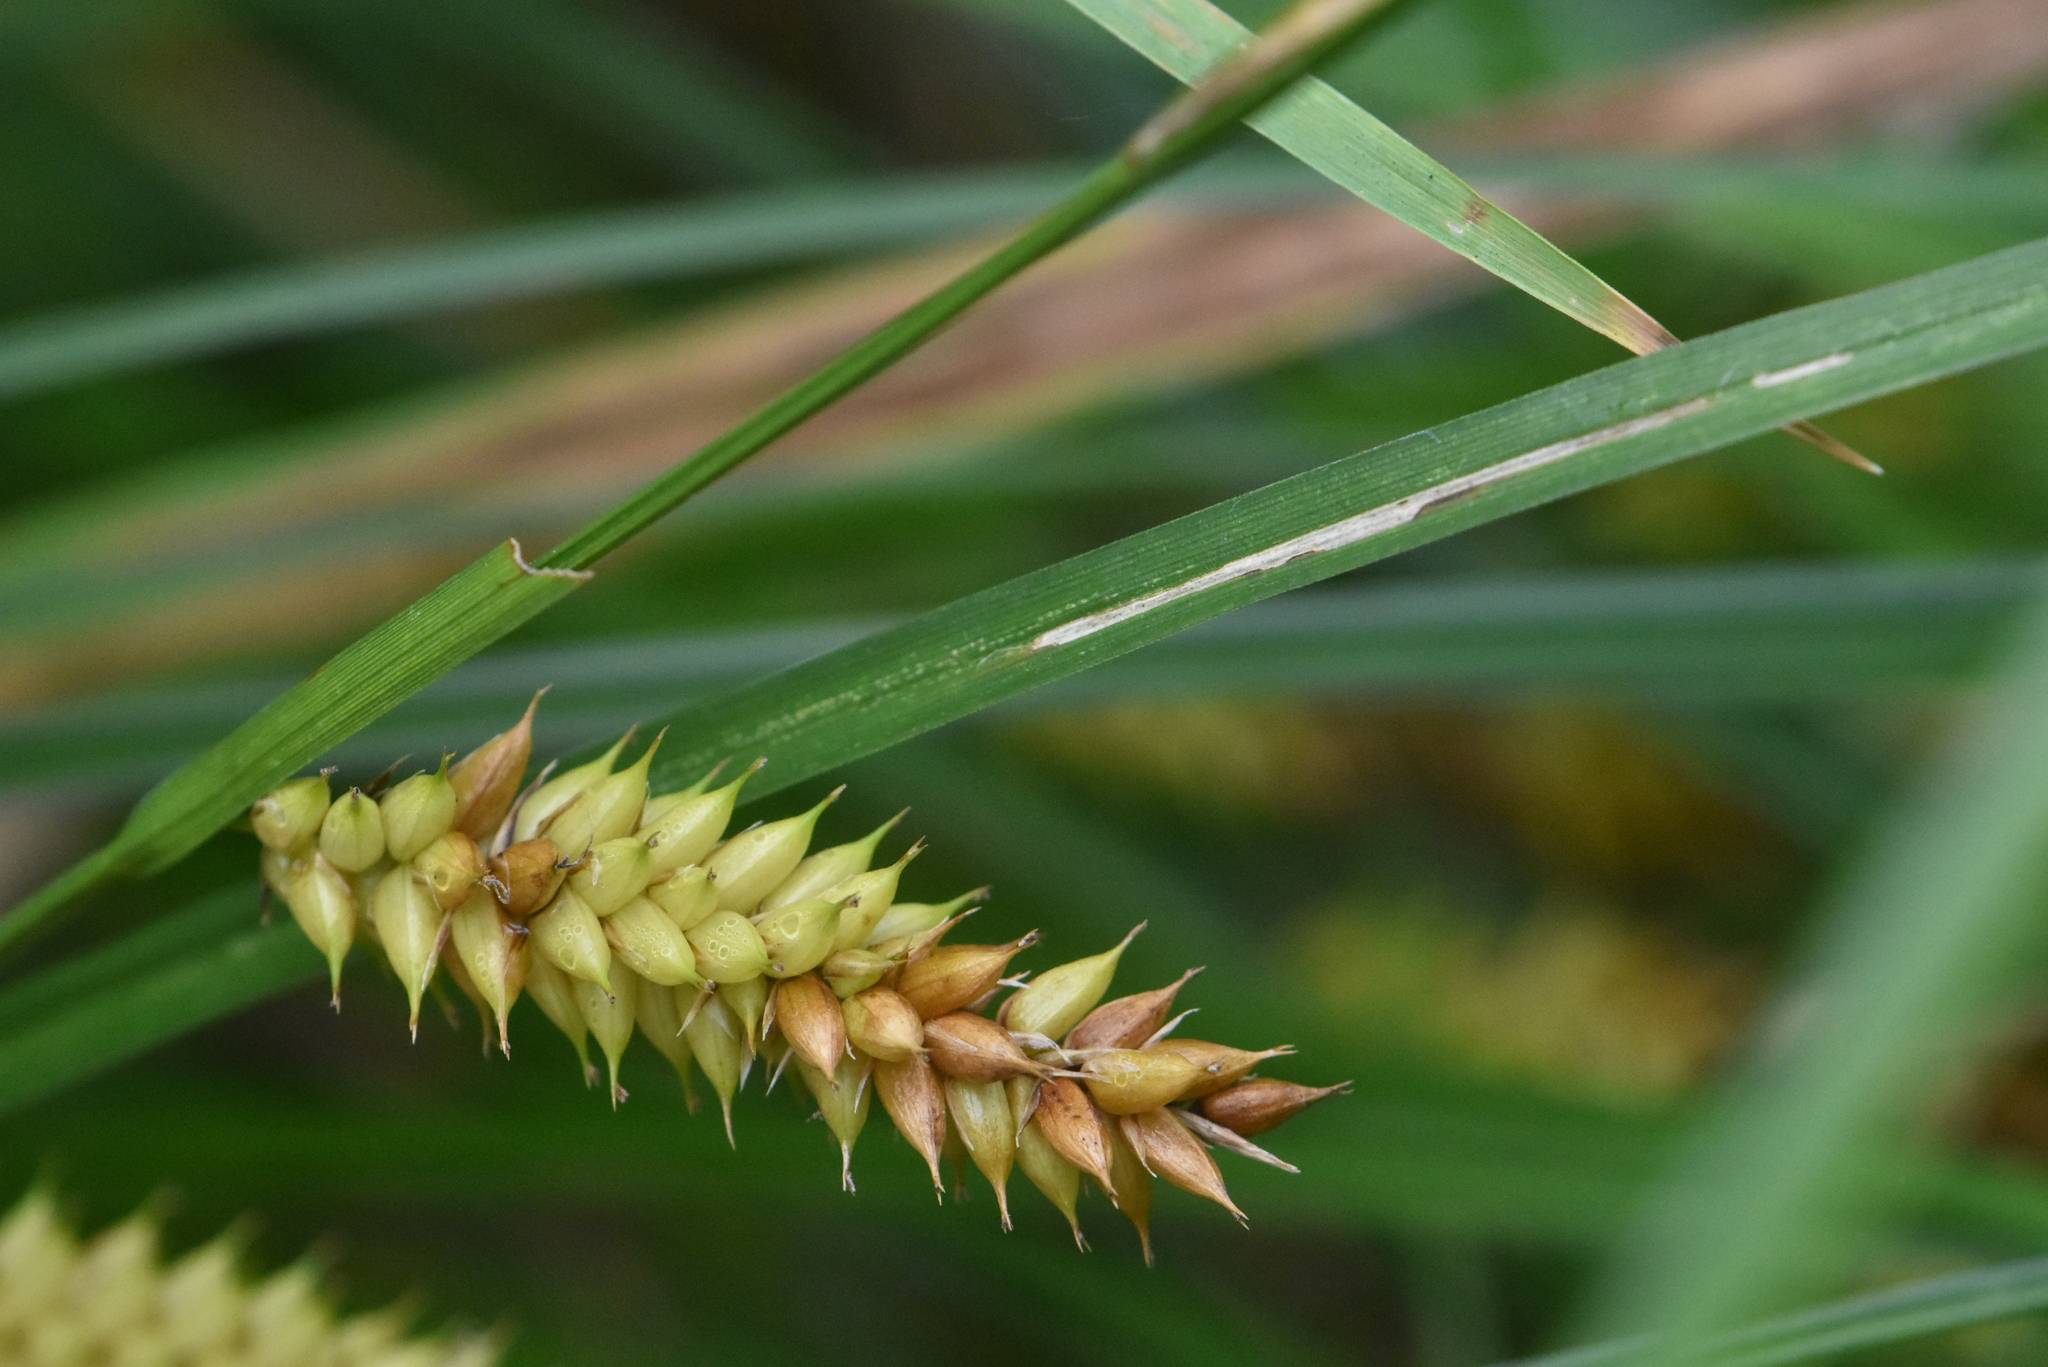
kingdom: Plantae
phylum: Tracheophyta
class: Liliopsida
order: Poales
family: Cyperaceae
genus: Carex
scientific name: Carex vesicaria
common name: Bladder-sedge
